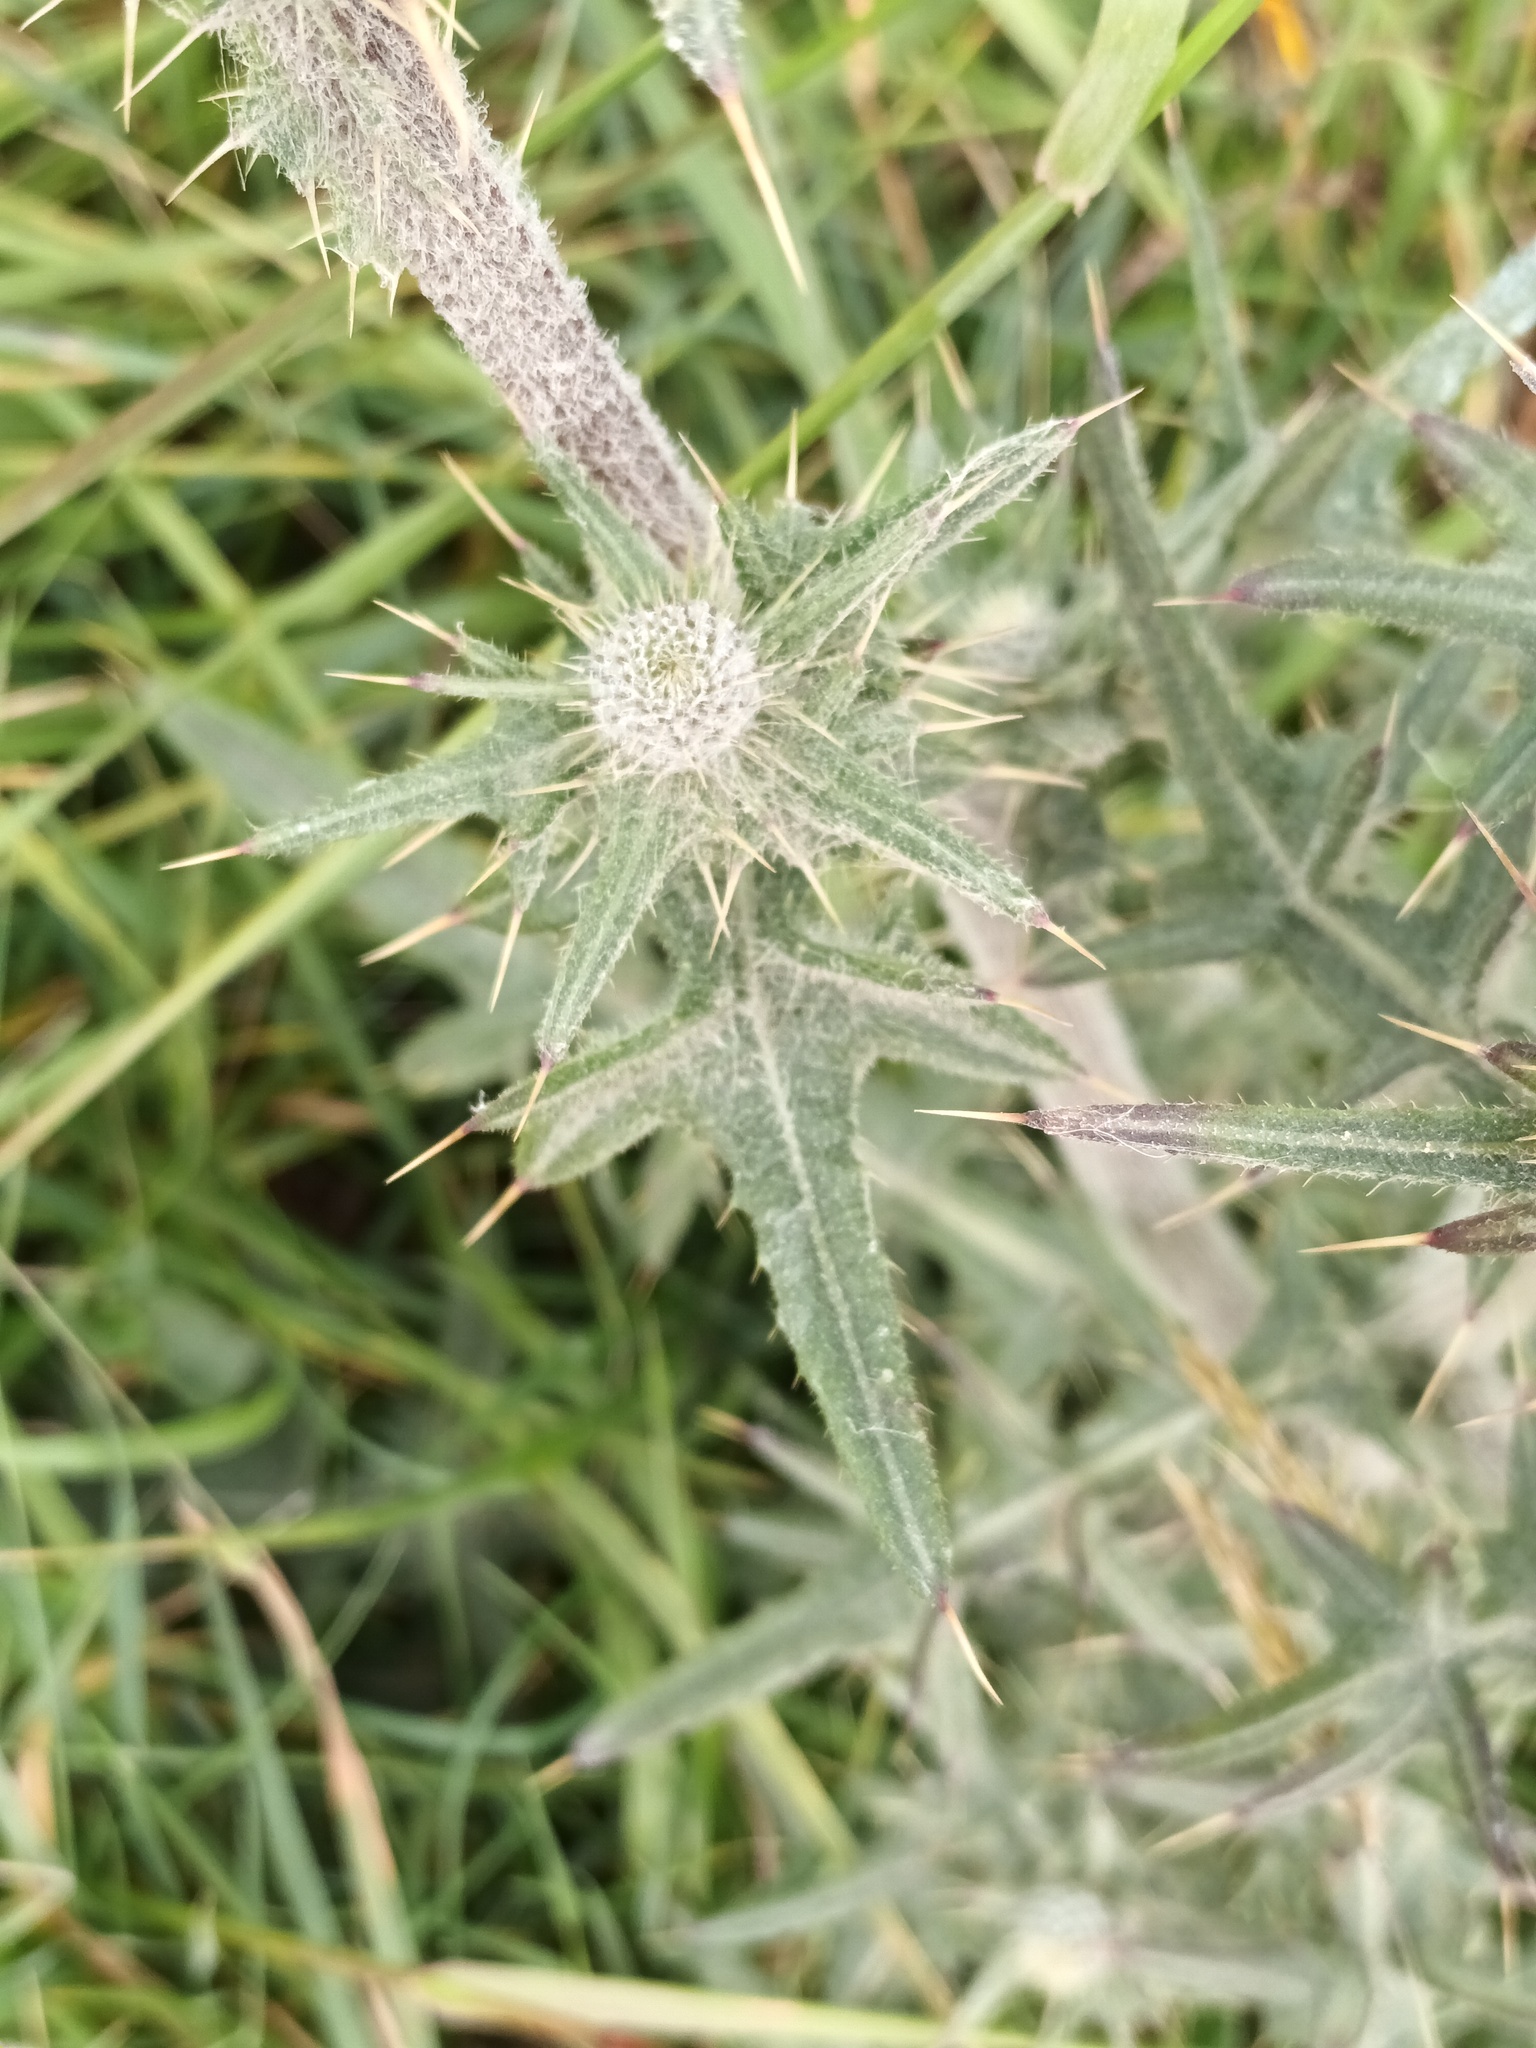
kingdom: Plantae
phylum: Tracheophyta
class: Magnoliopsida
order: Asterales
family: Asteraceae
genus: Cirsium
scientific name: Cirsium vulgare
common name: Bull thistle
